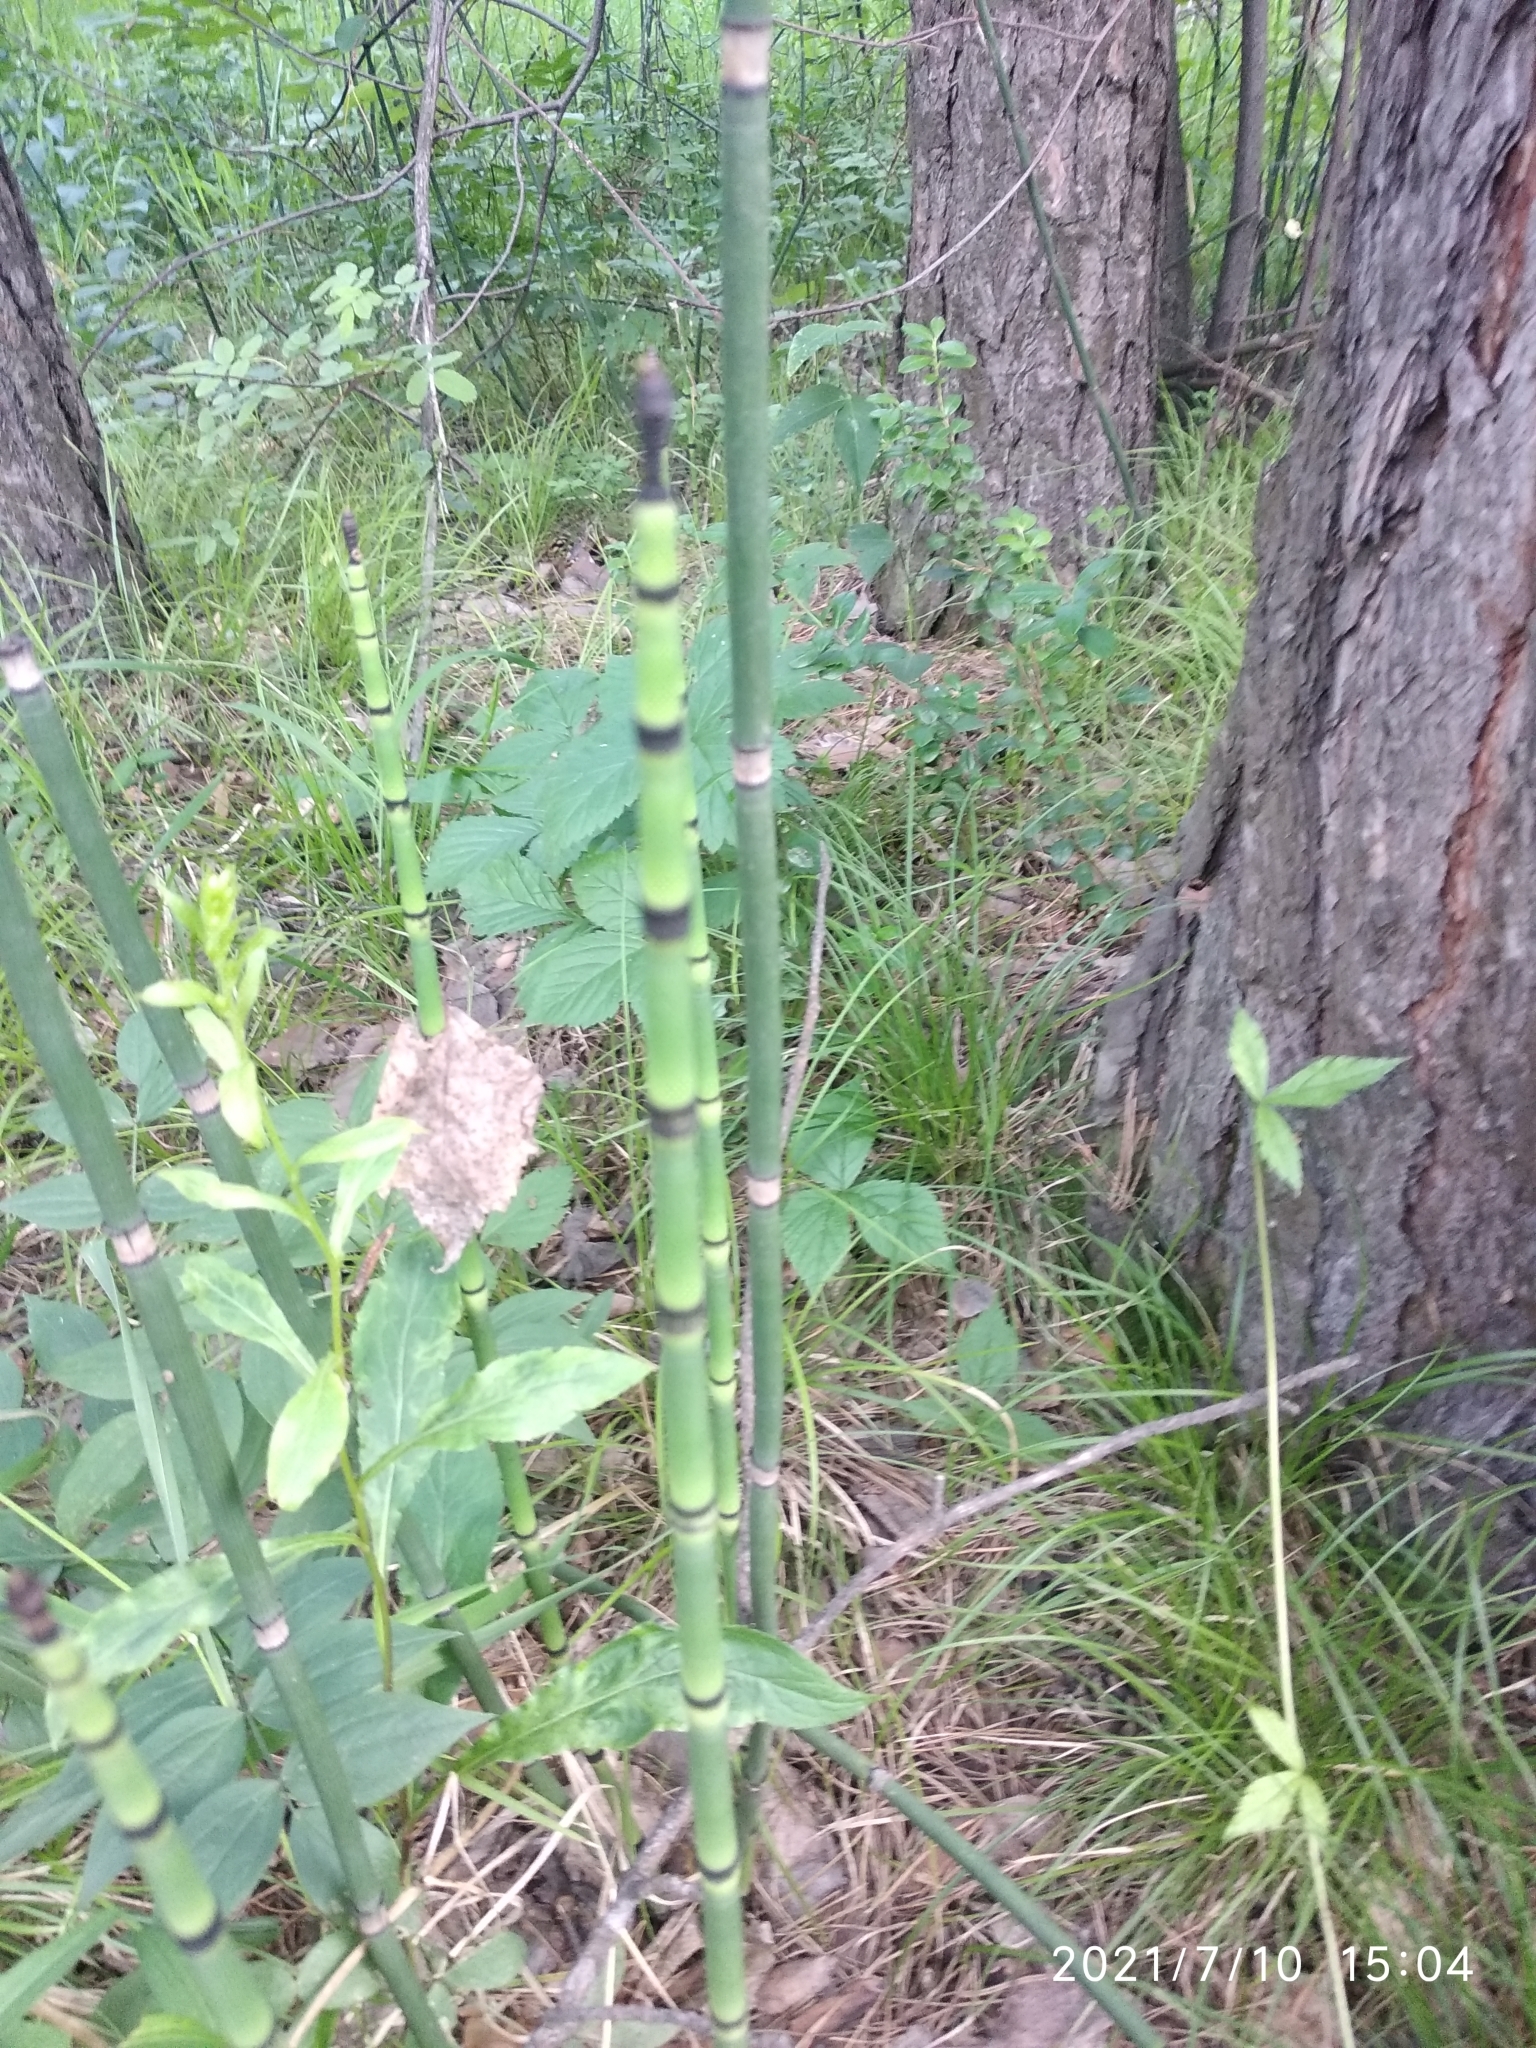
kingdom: Plantae
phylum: Tracheophyta
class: Polypodiopsida
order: Equisetales
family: Equisetaceae
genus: Equisetum
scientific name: Equisetum hyemale
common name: Rough horsetail
